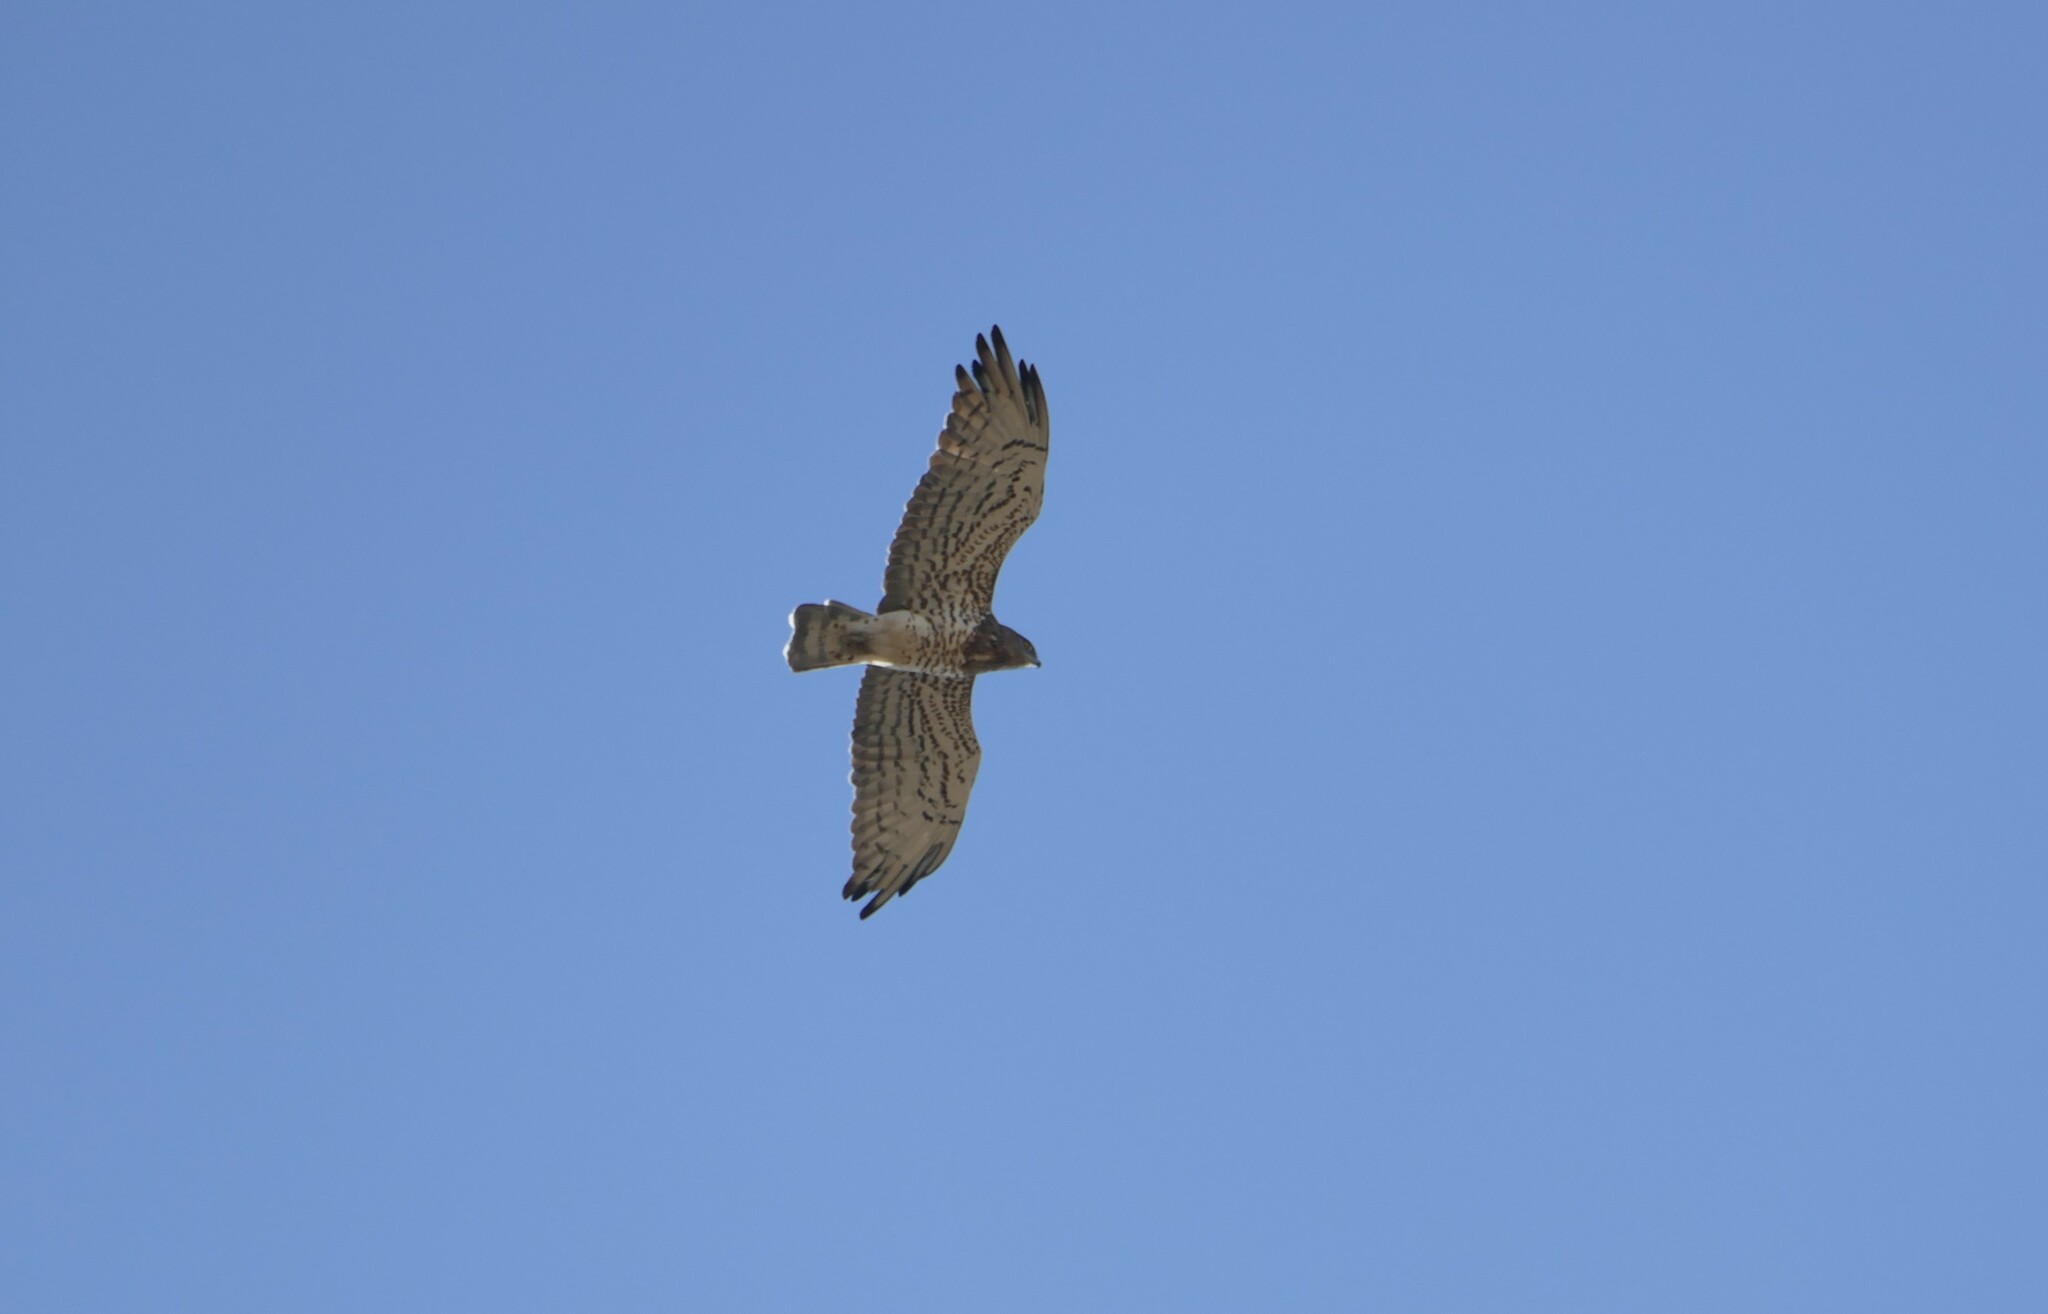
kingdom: Animalia
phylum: Chordata
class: Aves
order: Accipitriformes
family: Accipitridae
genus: Circaetus
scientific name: Circaetus gallicus
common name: Short-toed snake eagle
